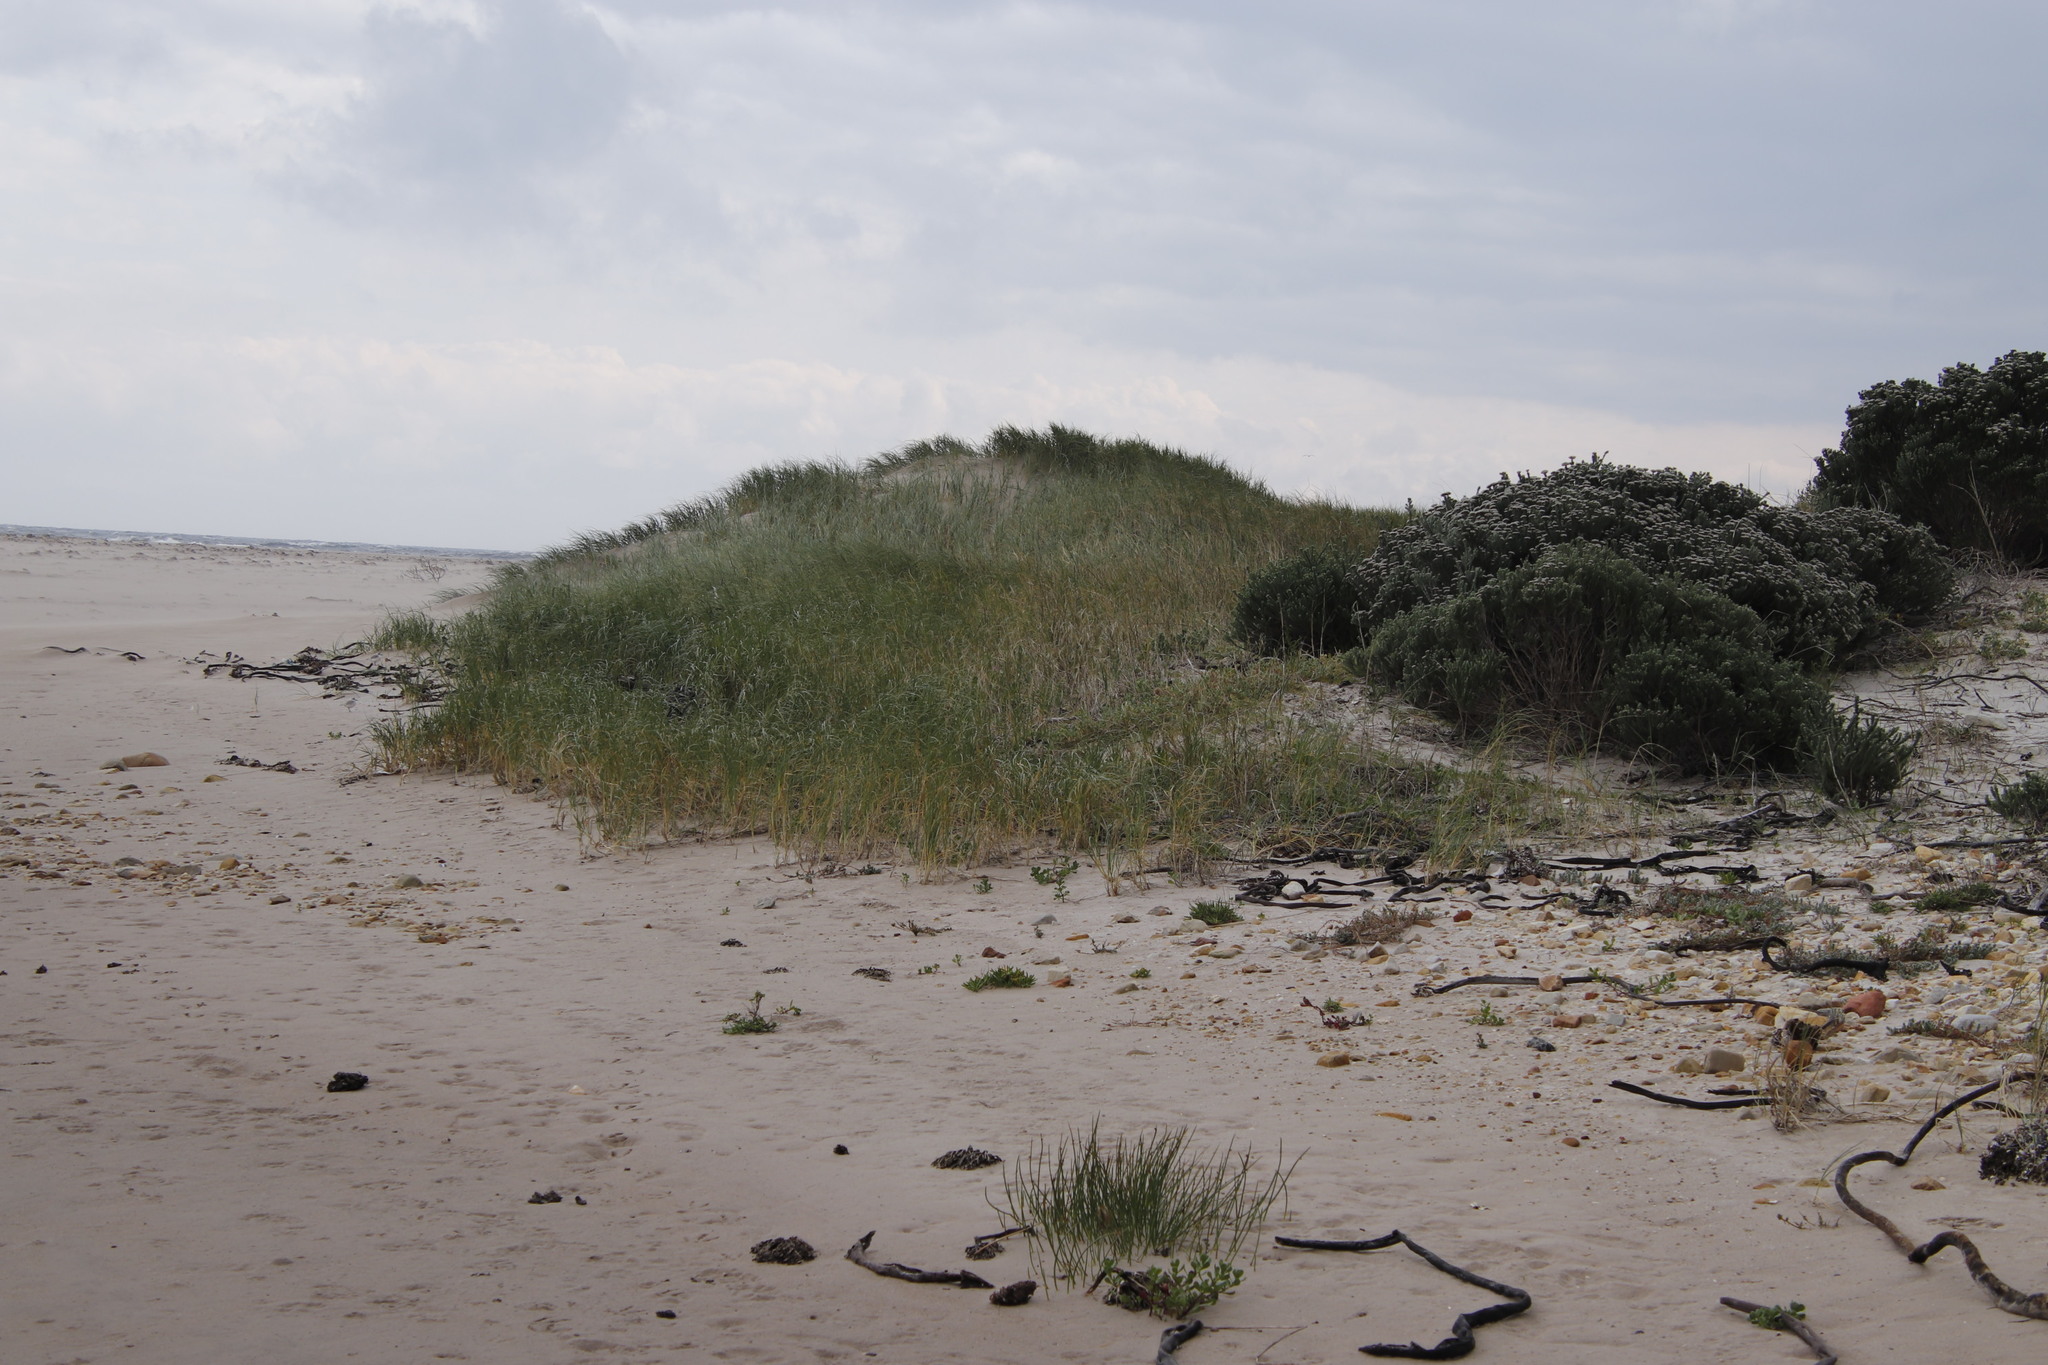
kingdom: Plantae
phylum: Tracheophyta
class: Liliopsida
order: Poales
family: Poaceae
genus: Thinopyrum
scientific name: Thinopyrum distichum
